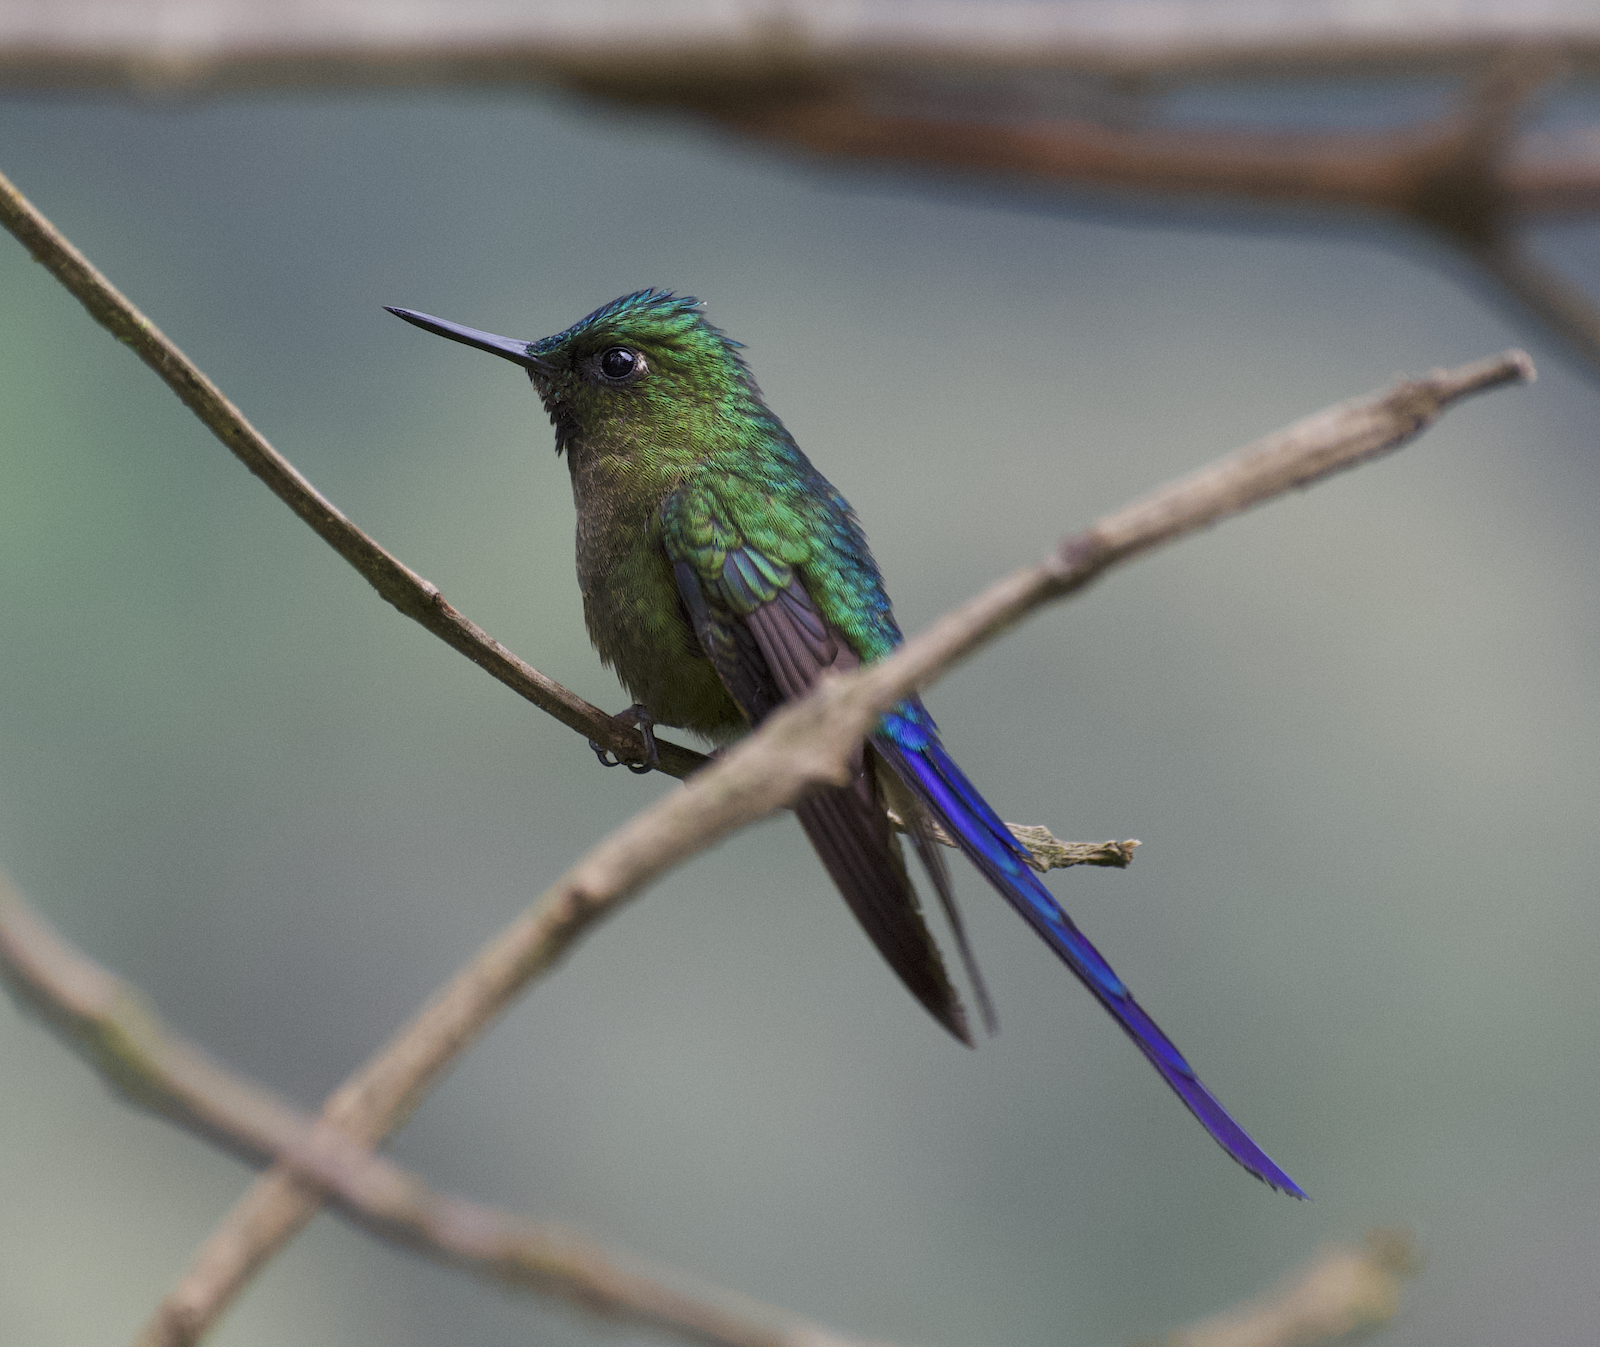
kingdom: Animalia
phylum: Chordata
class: Aves
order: Apodiformes
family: Trochilidae
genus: Aglaiocercus
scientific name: Aglaiocercus coelestis
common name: Violet-tailed sylph
